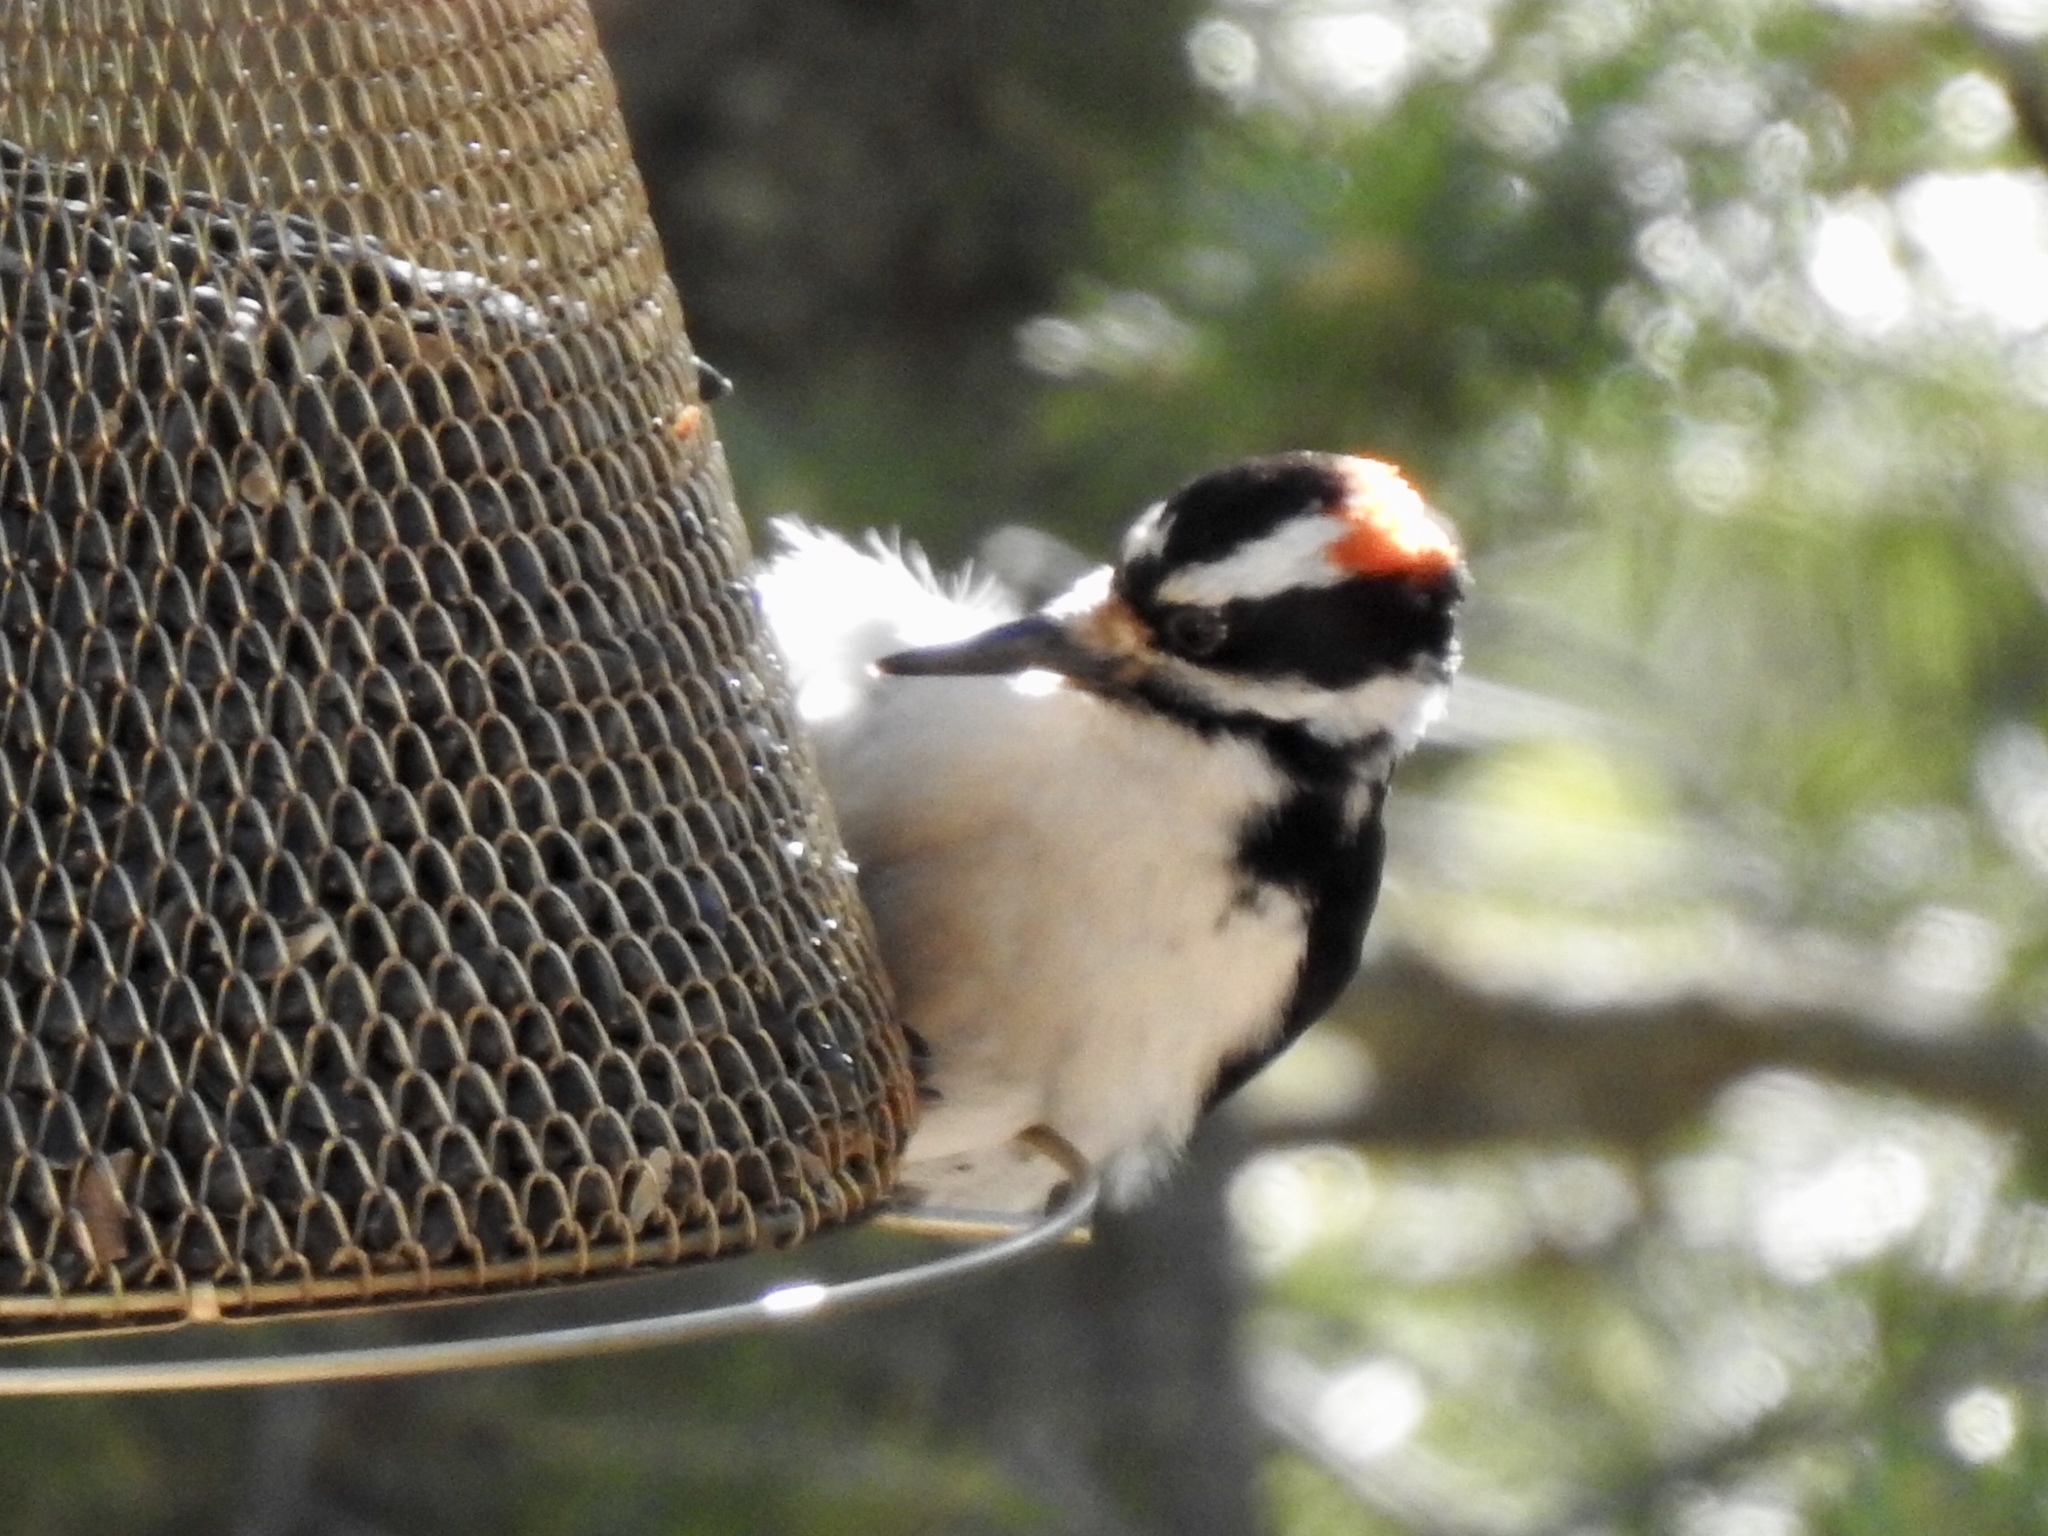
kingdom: Animalia
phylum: Chordata
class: Aves
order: Piciformes
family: Picidae
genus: Leuconotopicus
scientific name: Leuconotopicus villosus
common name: Hairy woodpecker
